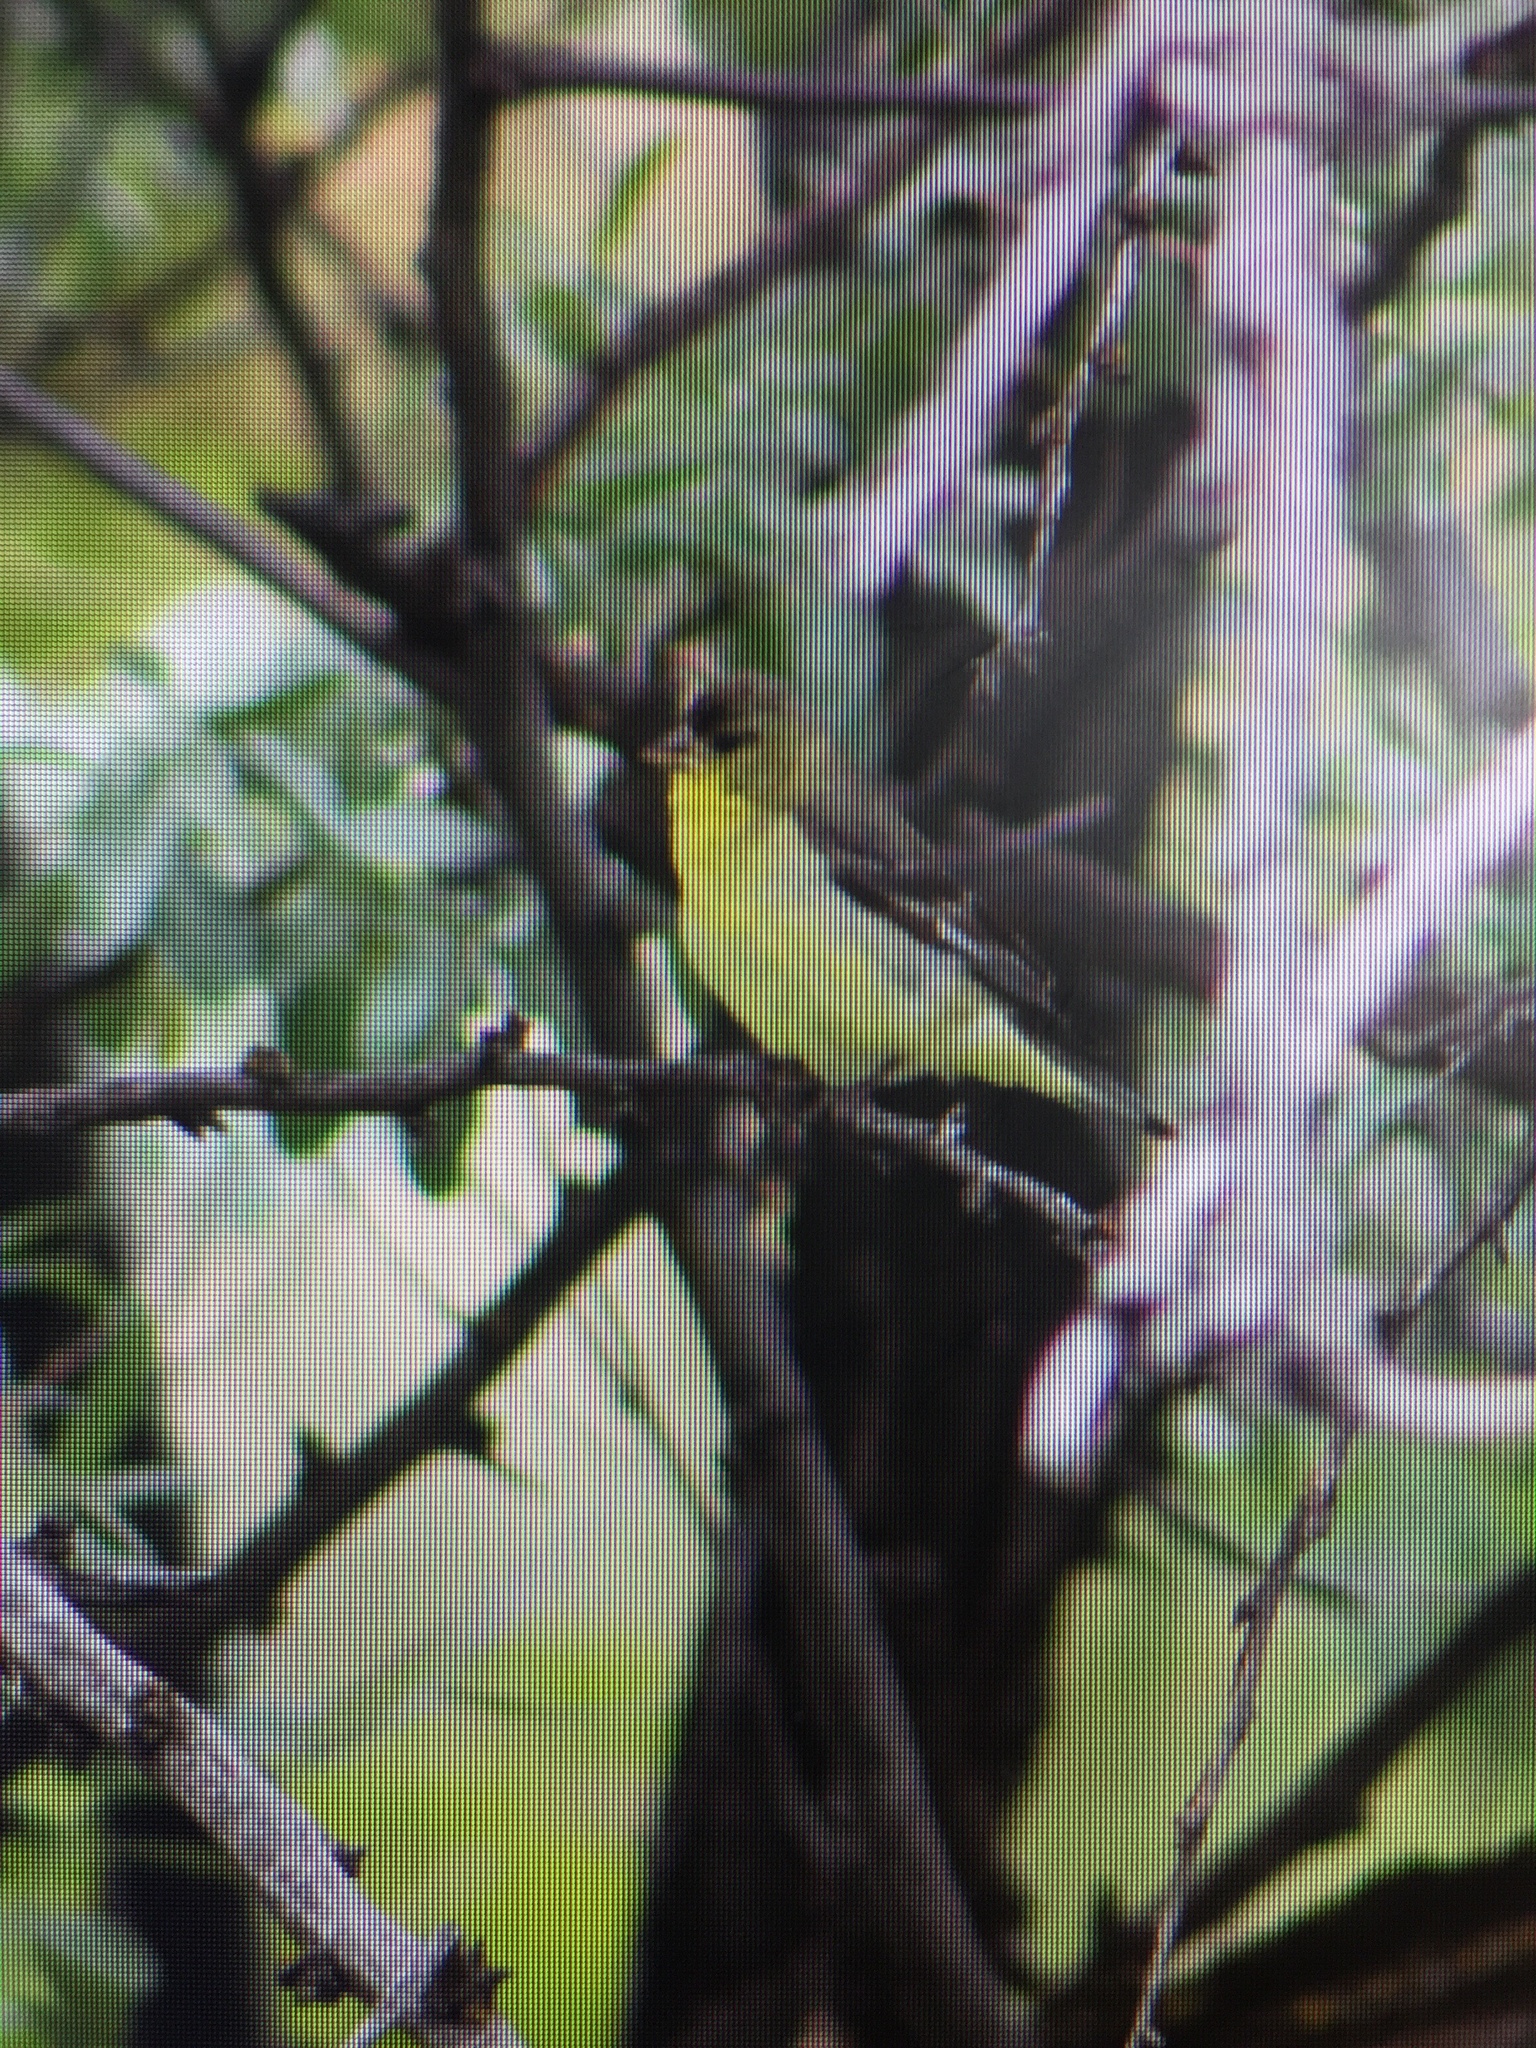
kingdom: Animalia
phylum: Chordata
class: Aves
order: Passeriformes
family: Fringillidae
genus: Spinus
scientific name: Spinus psaltria
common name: Lesser goldfinch
